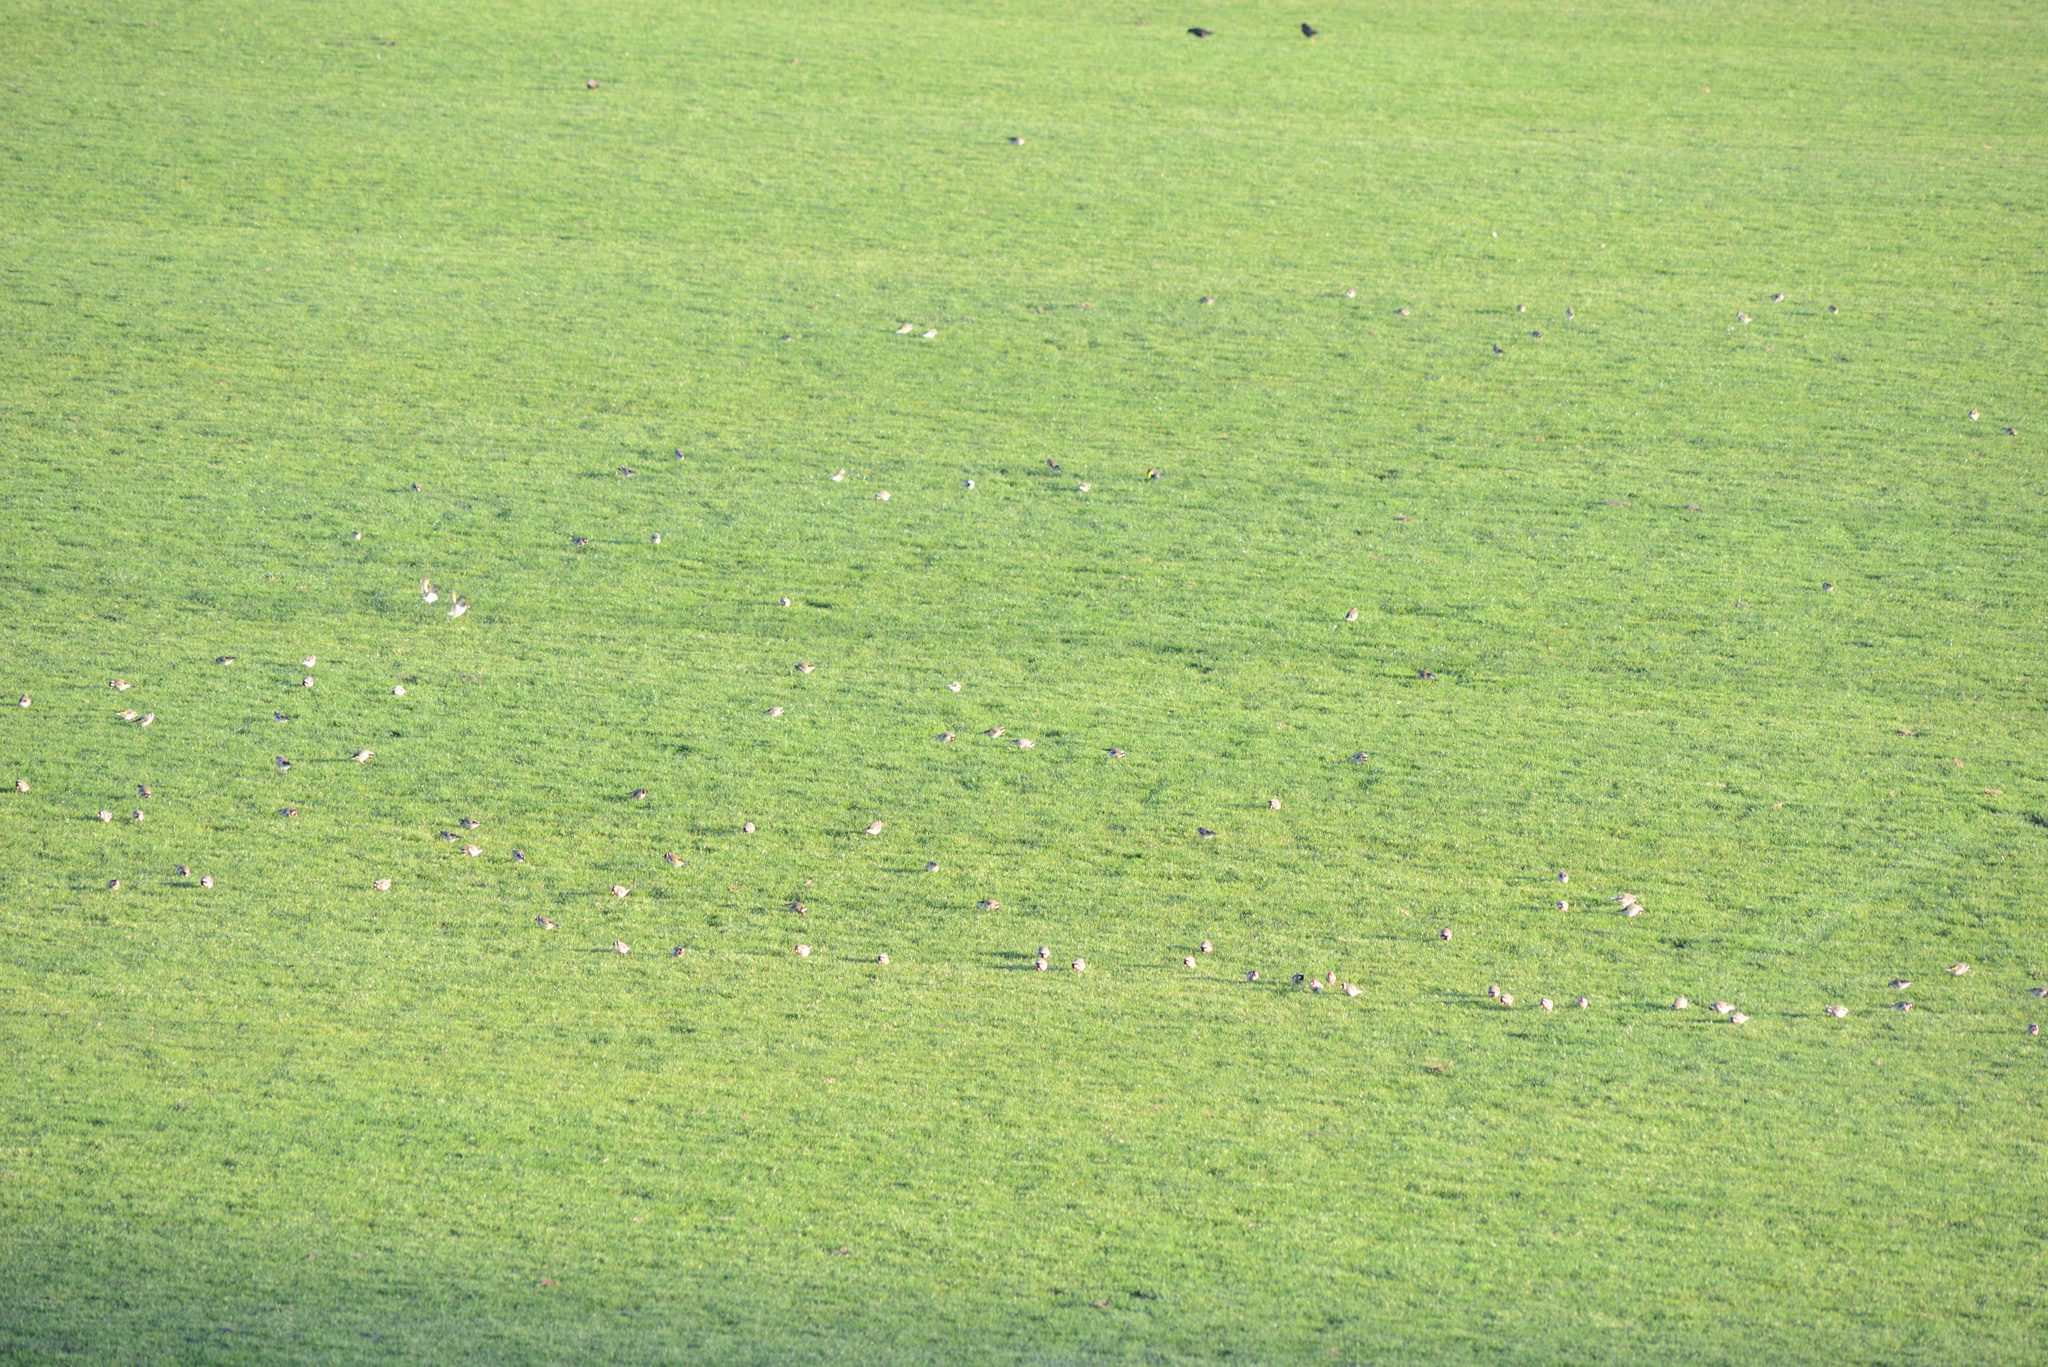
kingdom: Animalia
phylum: Chordata
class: Aves
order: Passeriformes
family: Fringillidae
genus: Carduelis
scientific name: Carduelis carduelis
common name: European goldfinch
